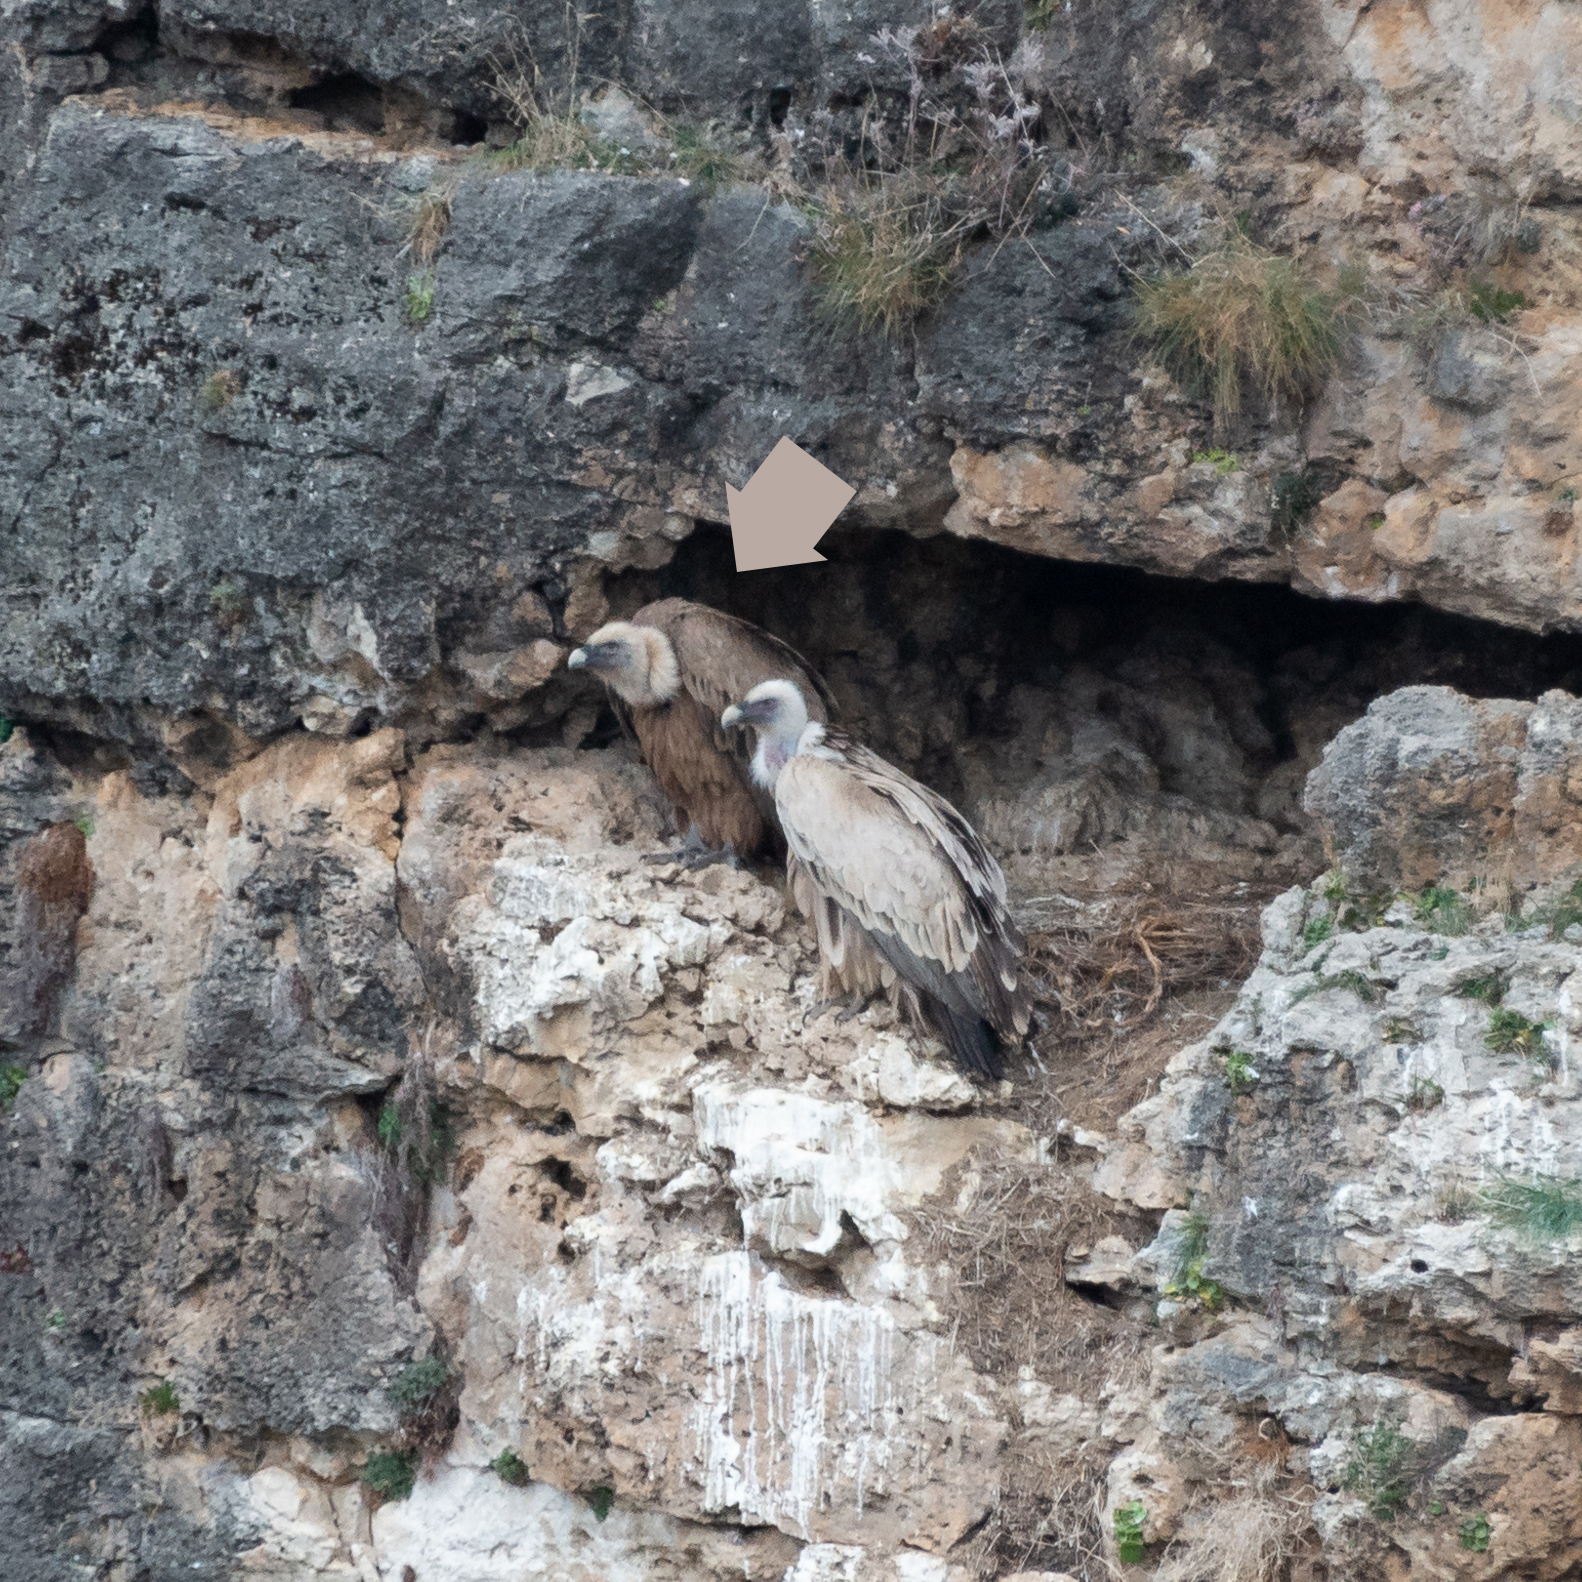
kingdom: Animalia
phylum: Chordata
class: Aves
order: Accipitriformes
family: Accipitridae
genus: Gyps
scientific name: Gyps fulvus
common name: Griffon vulture
